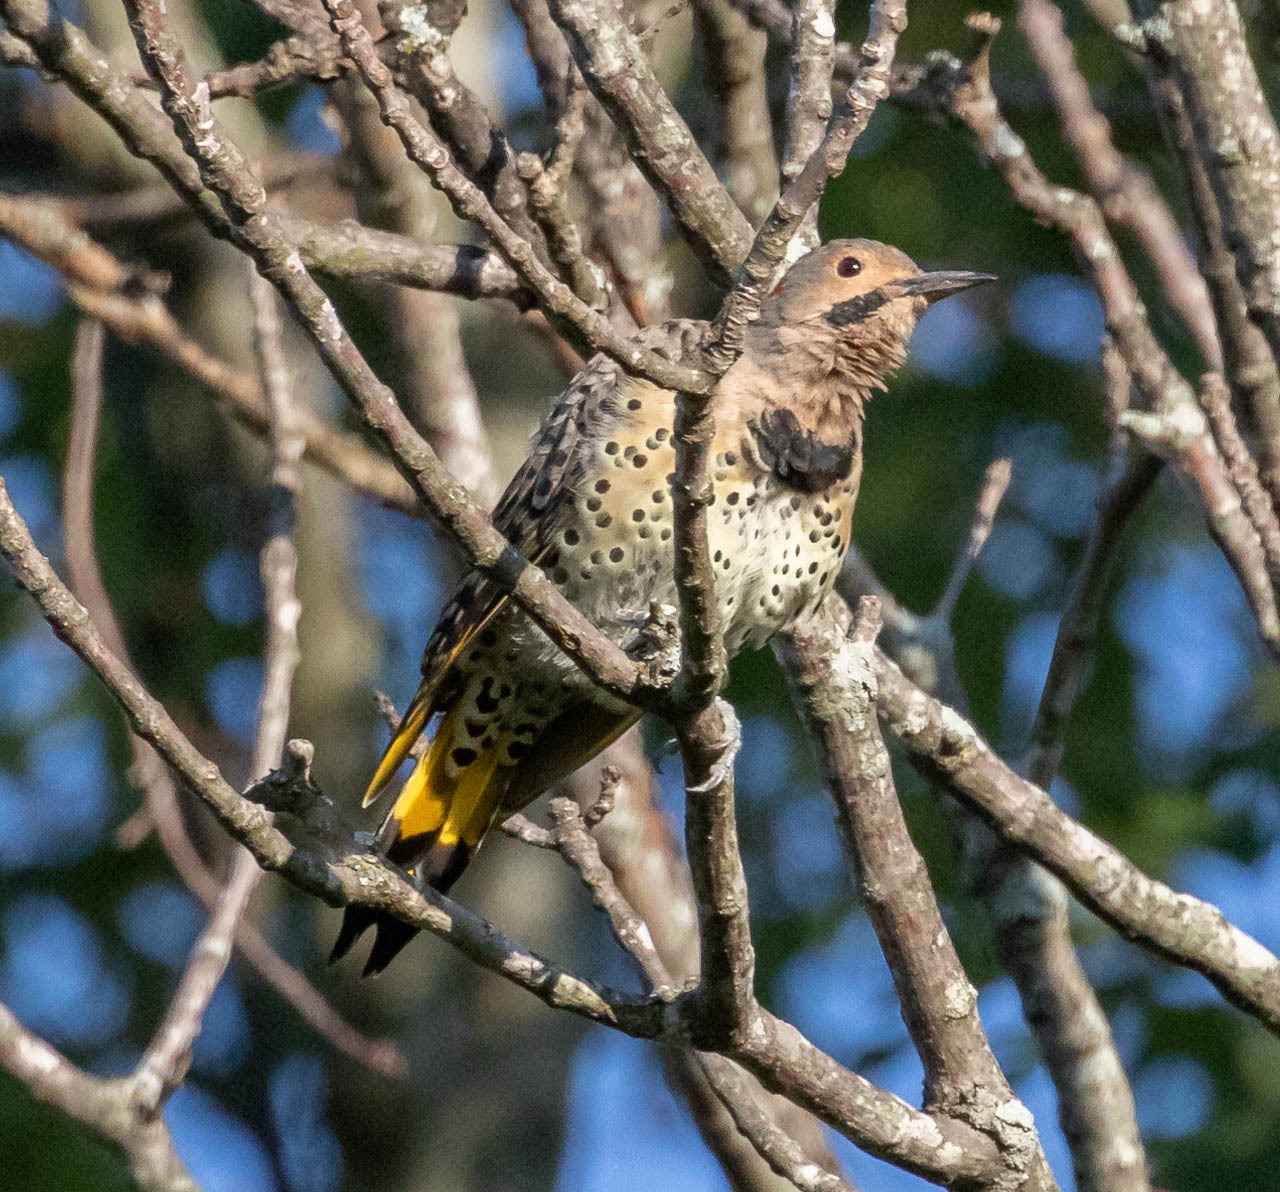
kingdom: Animalia
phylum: Chordata
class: Aves
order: Piciformes
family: Picidae
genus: Colaptes
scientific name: Colaptes auratus
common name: Northern flicker
